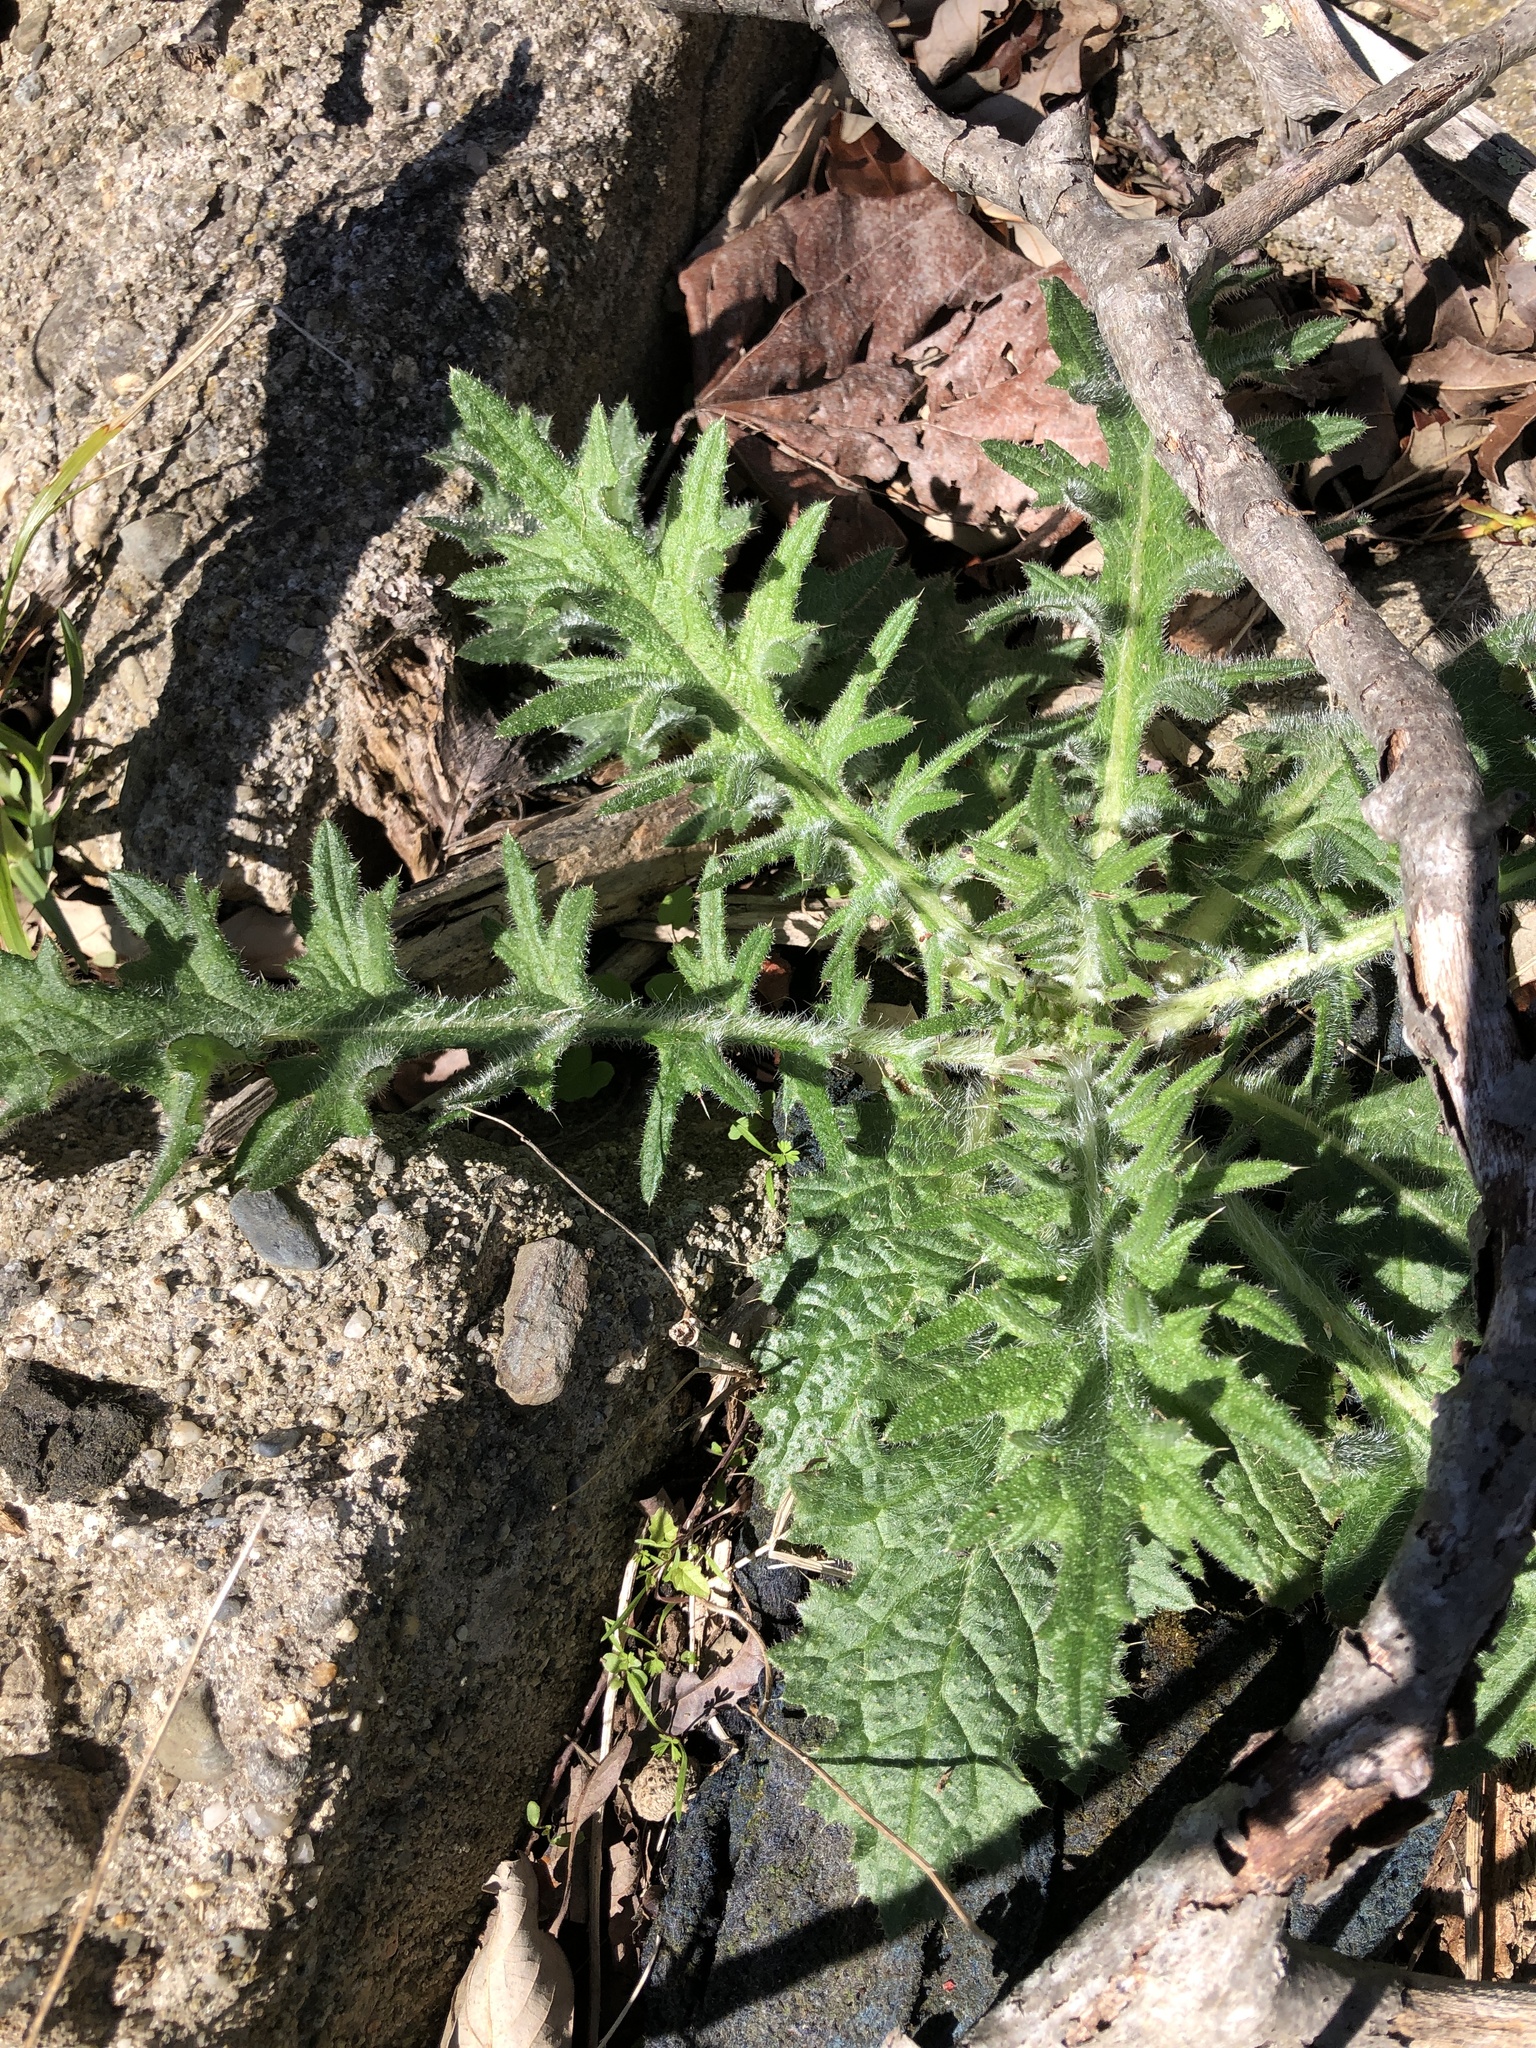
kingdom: Plantae
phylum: Tracheophyta
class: Magnoliopsida
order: Asterales
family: Asteraceae
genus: Cirsium
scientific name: Cirsium vulgare
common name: Bull thistle
